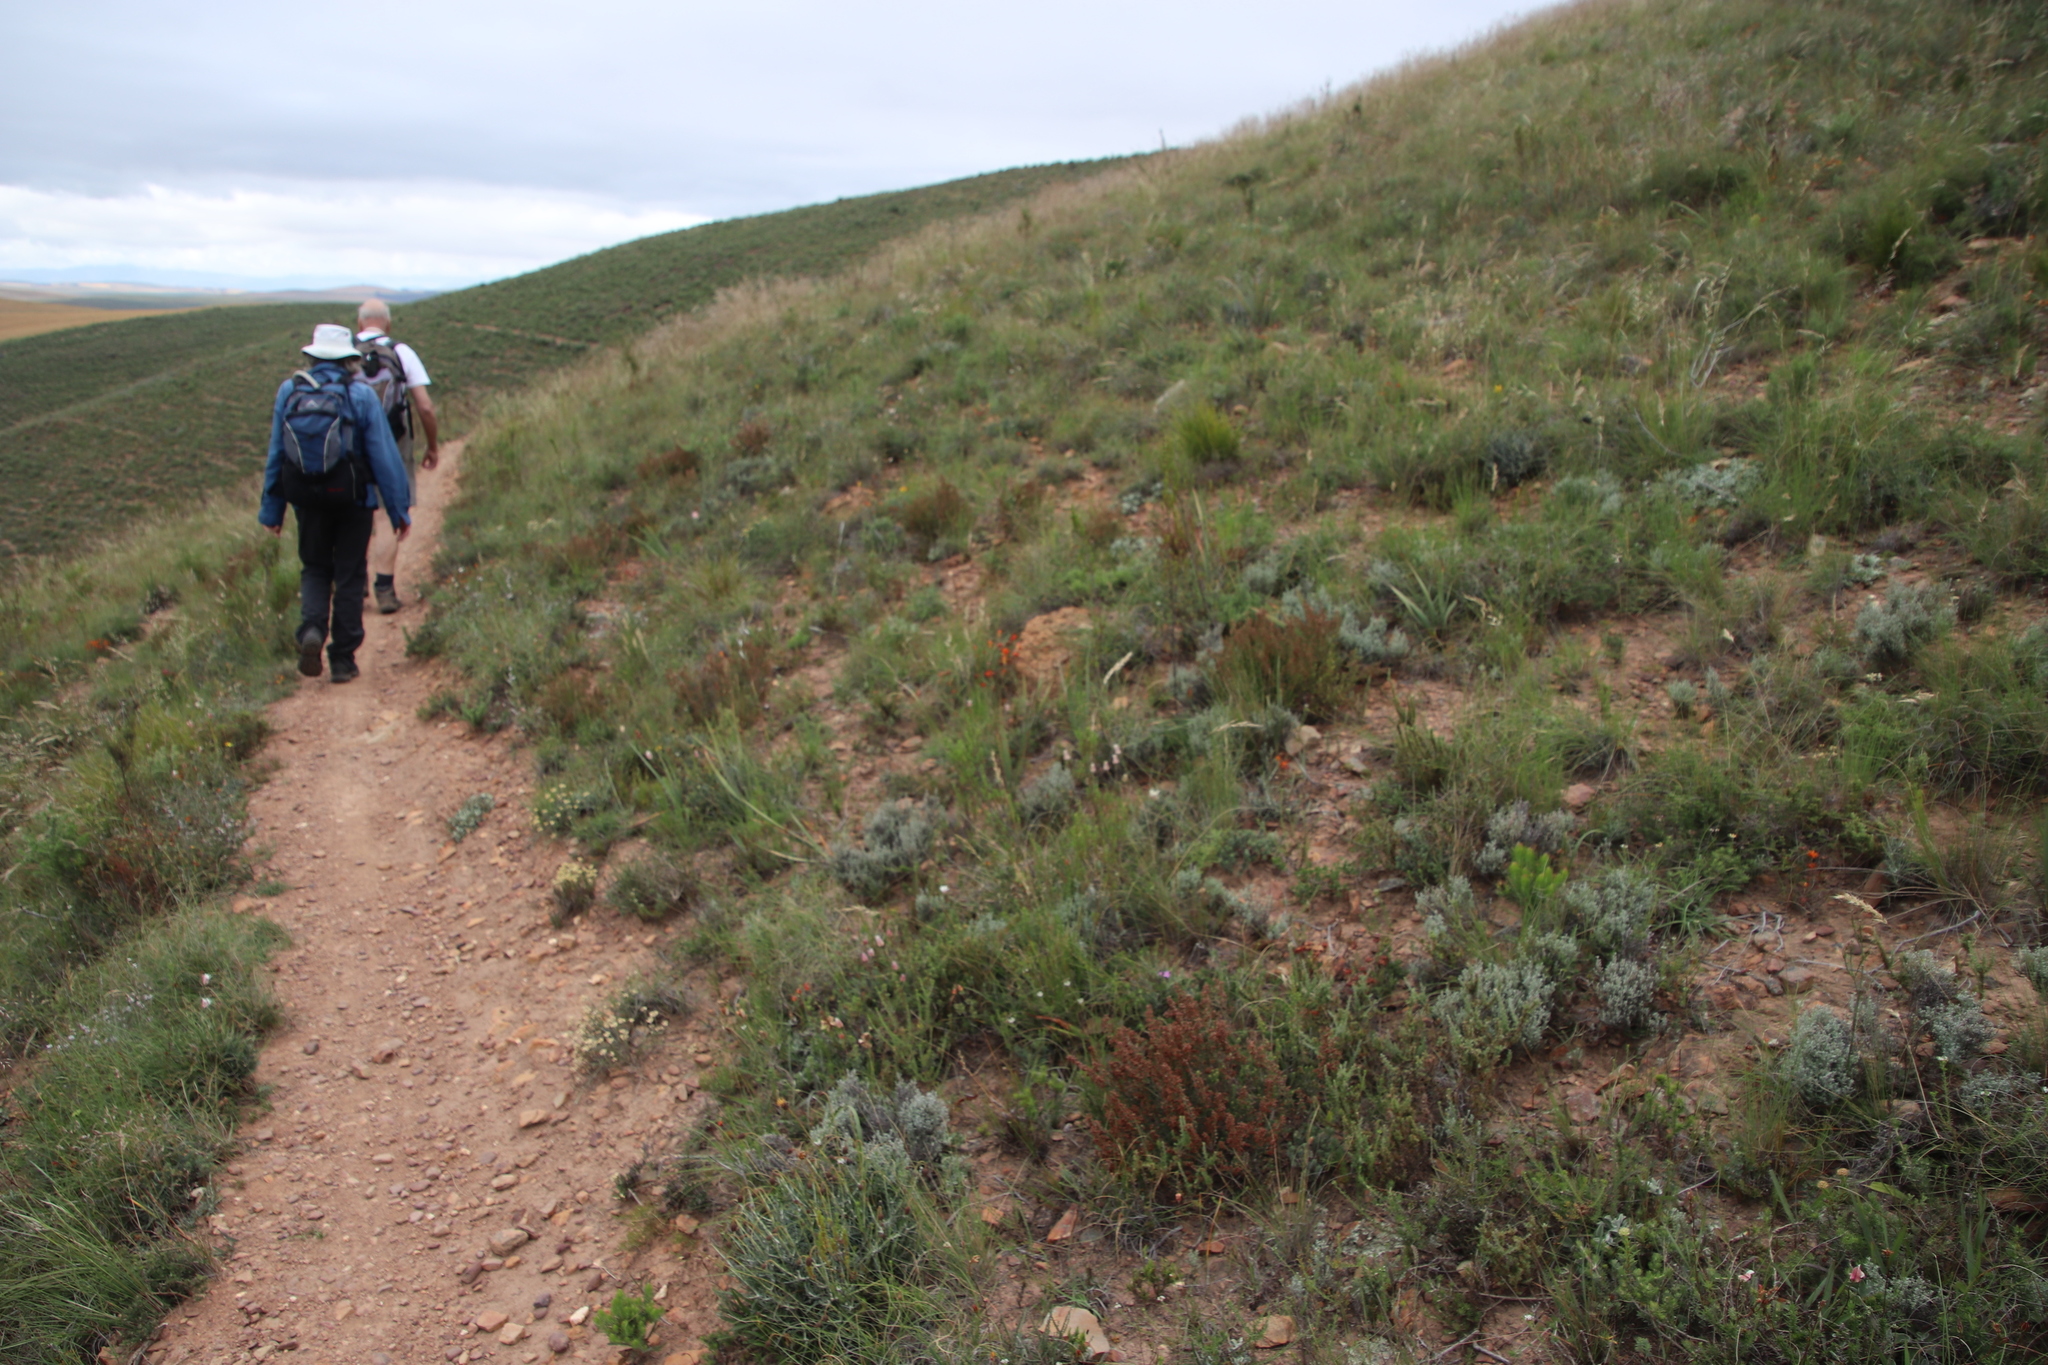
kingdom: Plantae
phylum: Tracheophyta
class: Magnoliopsida
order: Ericales
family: Ericaceae
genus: Erica
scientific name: Erica setacea
